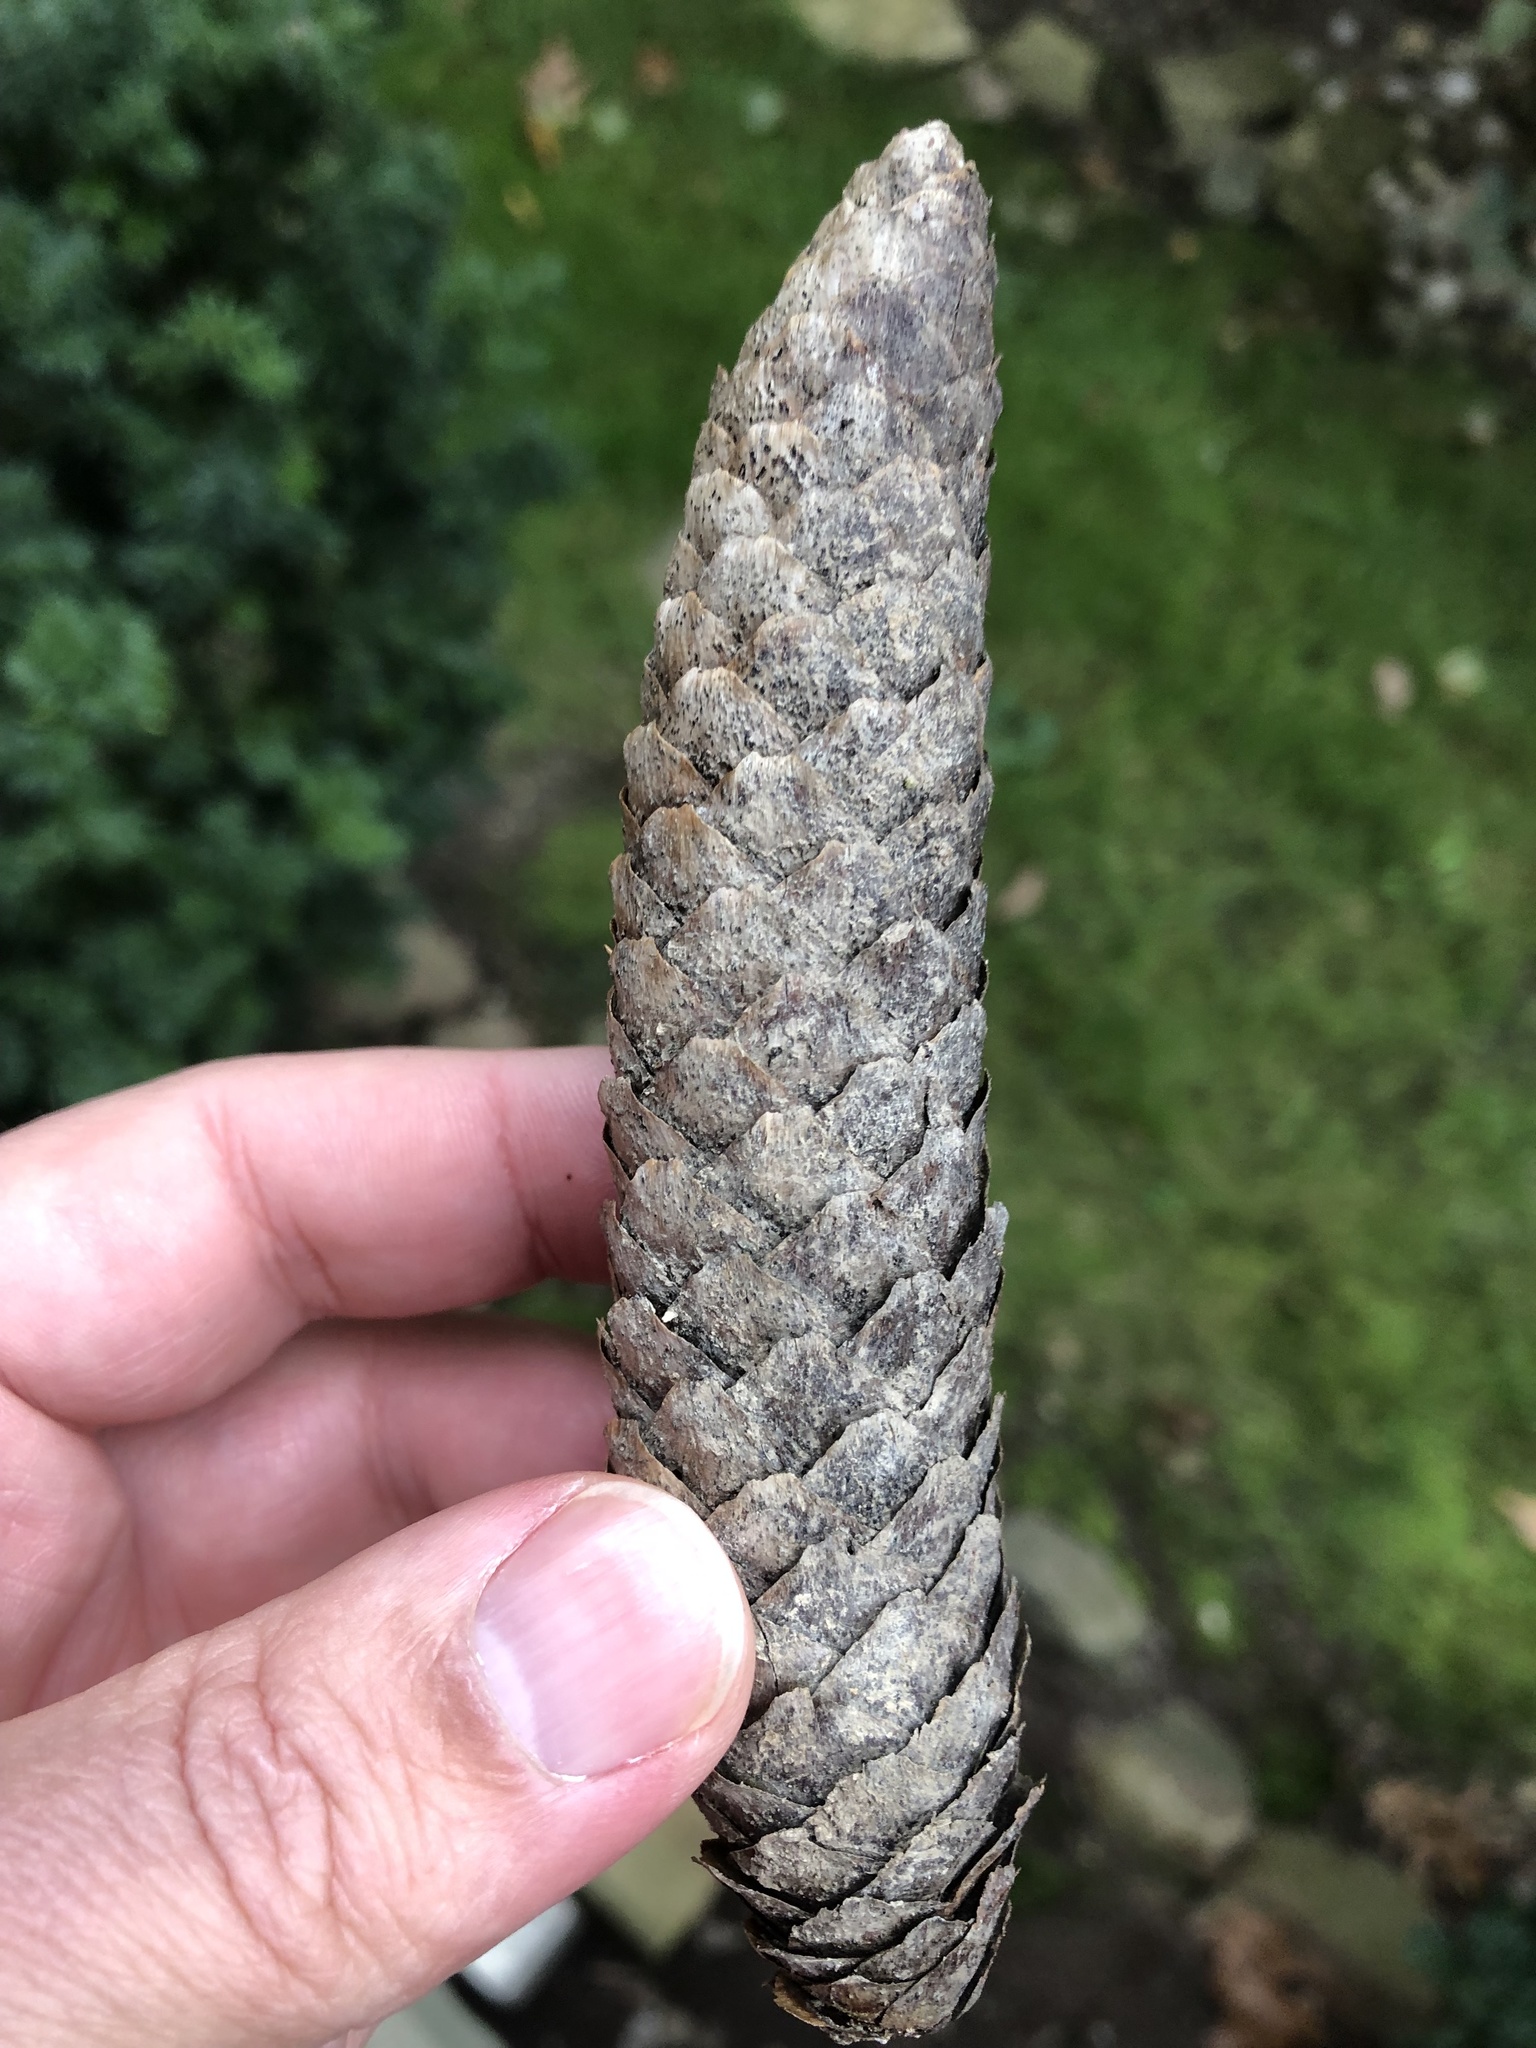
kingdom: Plantae
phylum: Tracheophyta
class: Pinopsida
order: Pinales
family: Pinaceae
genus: Picea
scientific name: Picea abies
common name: Norway spruce
